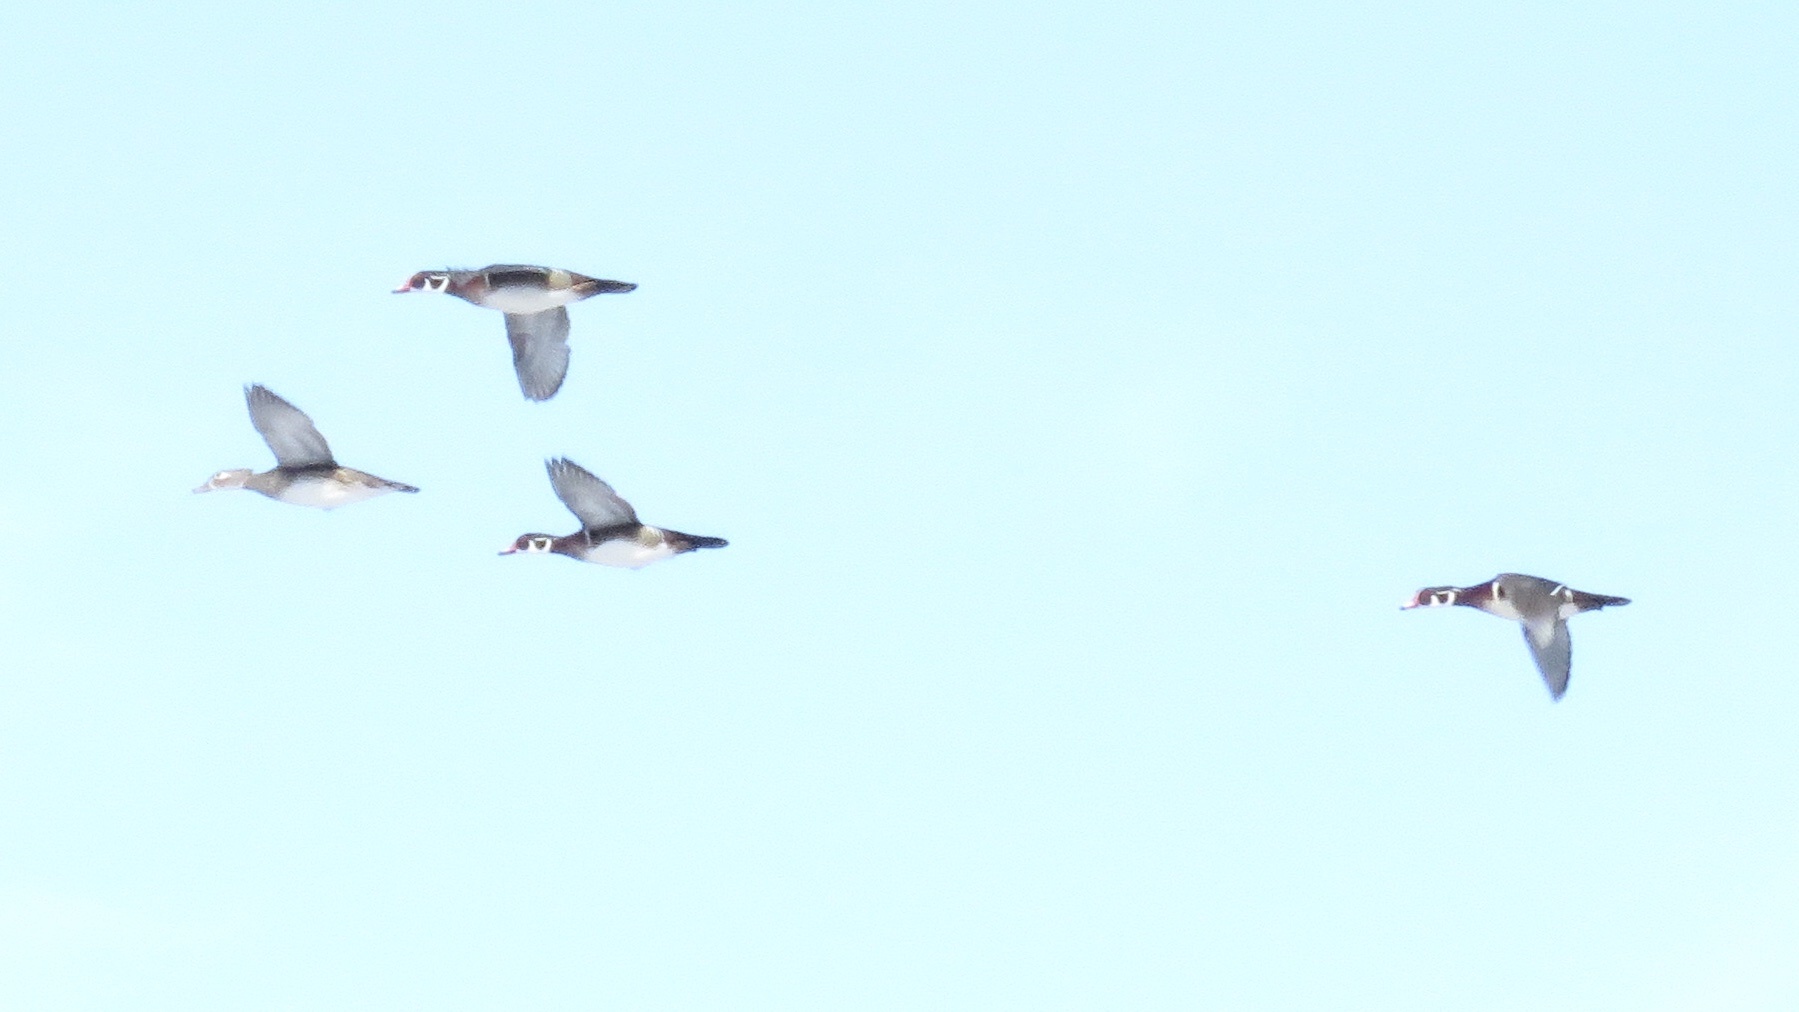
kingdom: Animalia
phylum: Chordata
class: Aves
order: Anseriformes
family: Anatidae
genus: Aix
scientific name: Aix sponsa
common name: Wood duck
